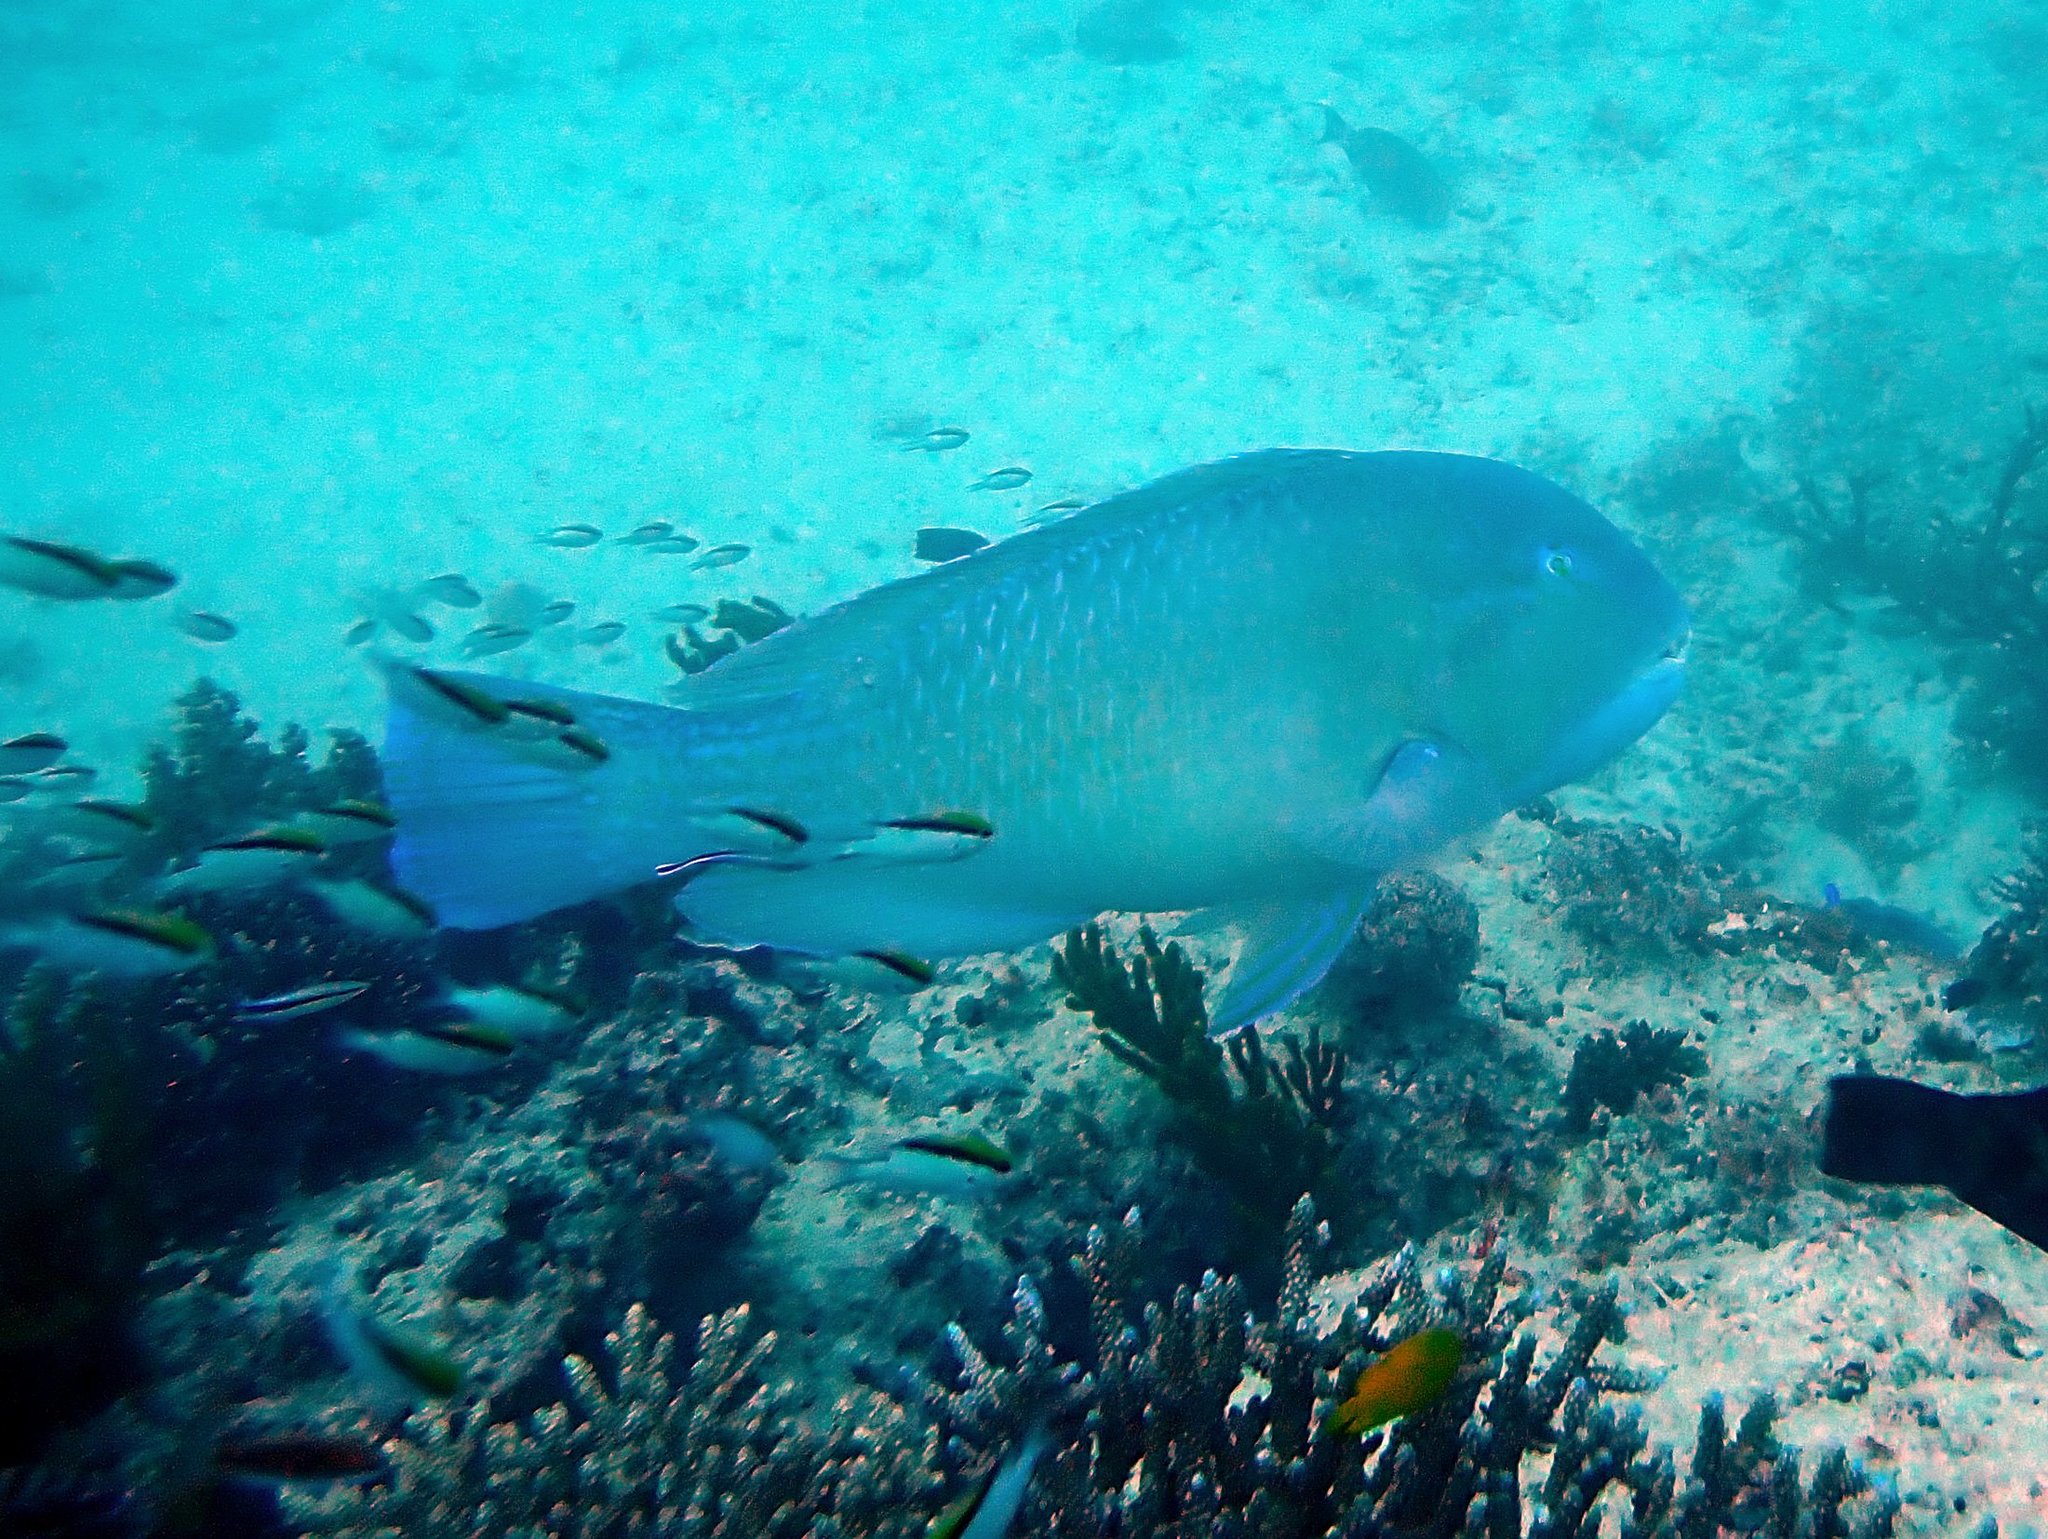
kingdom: Animalia
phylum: Chordata
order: Perciformes
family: Labridae
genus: Choerodon
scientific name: Choerodon schoenleinii
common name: Blackspot tuskfish
